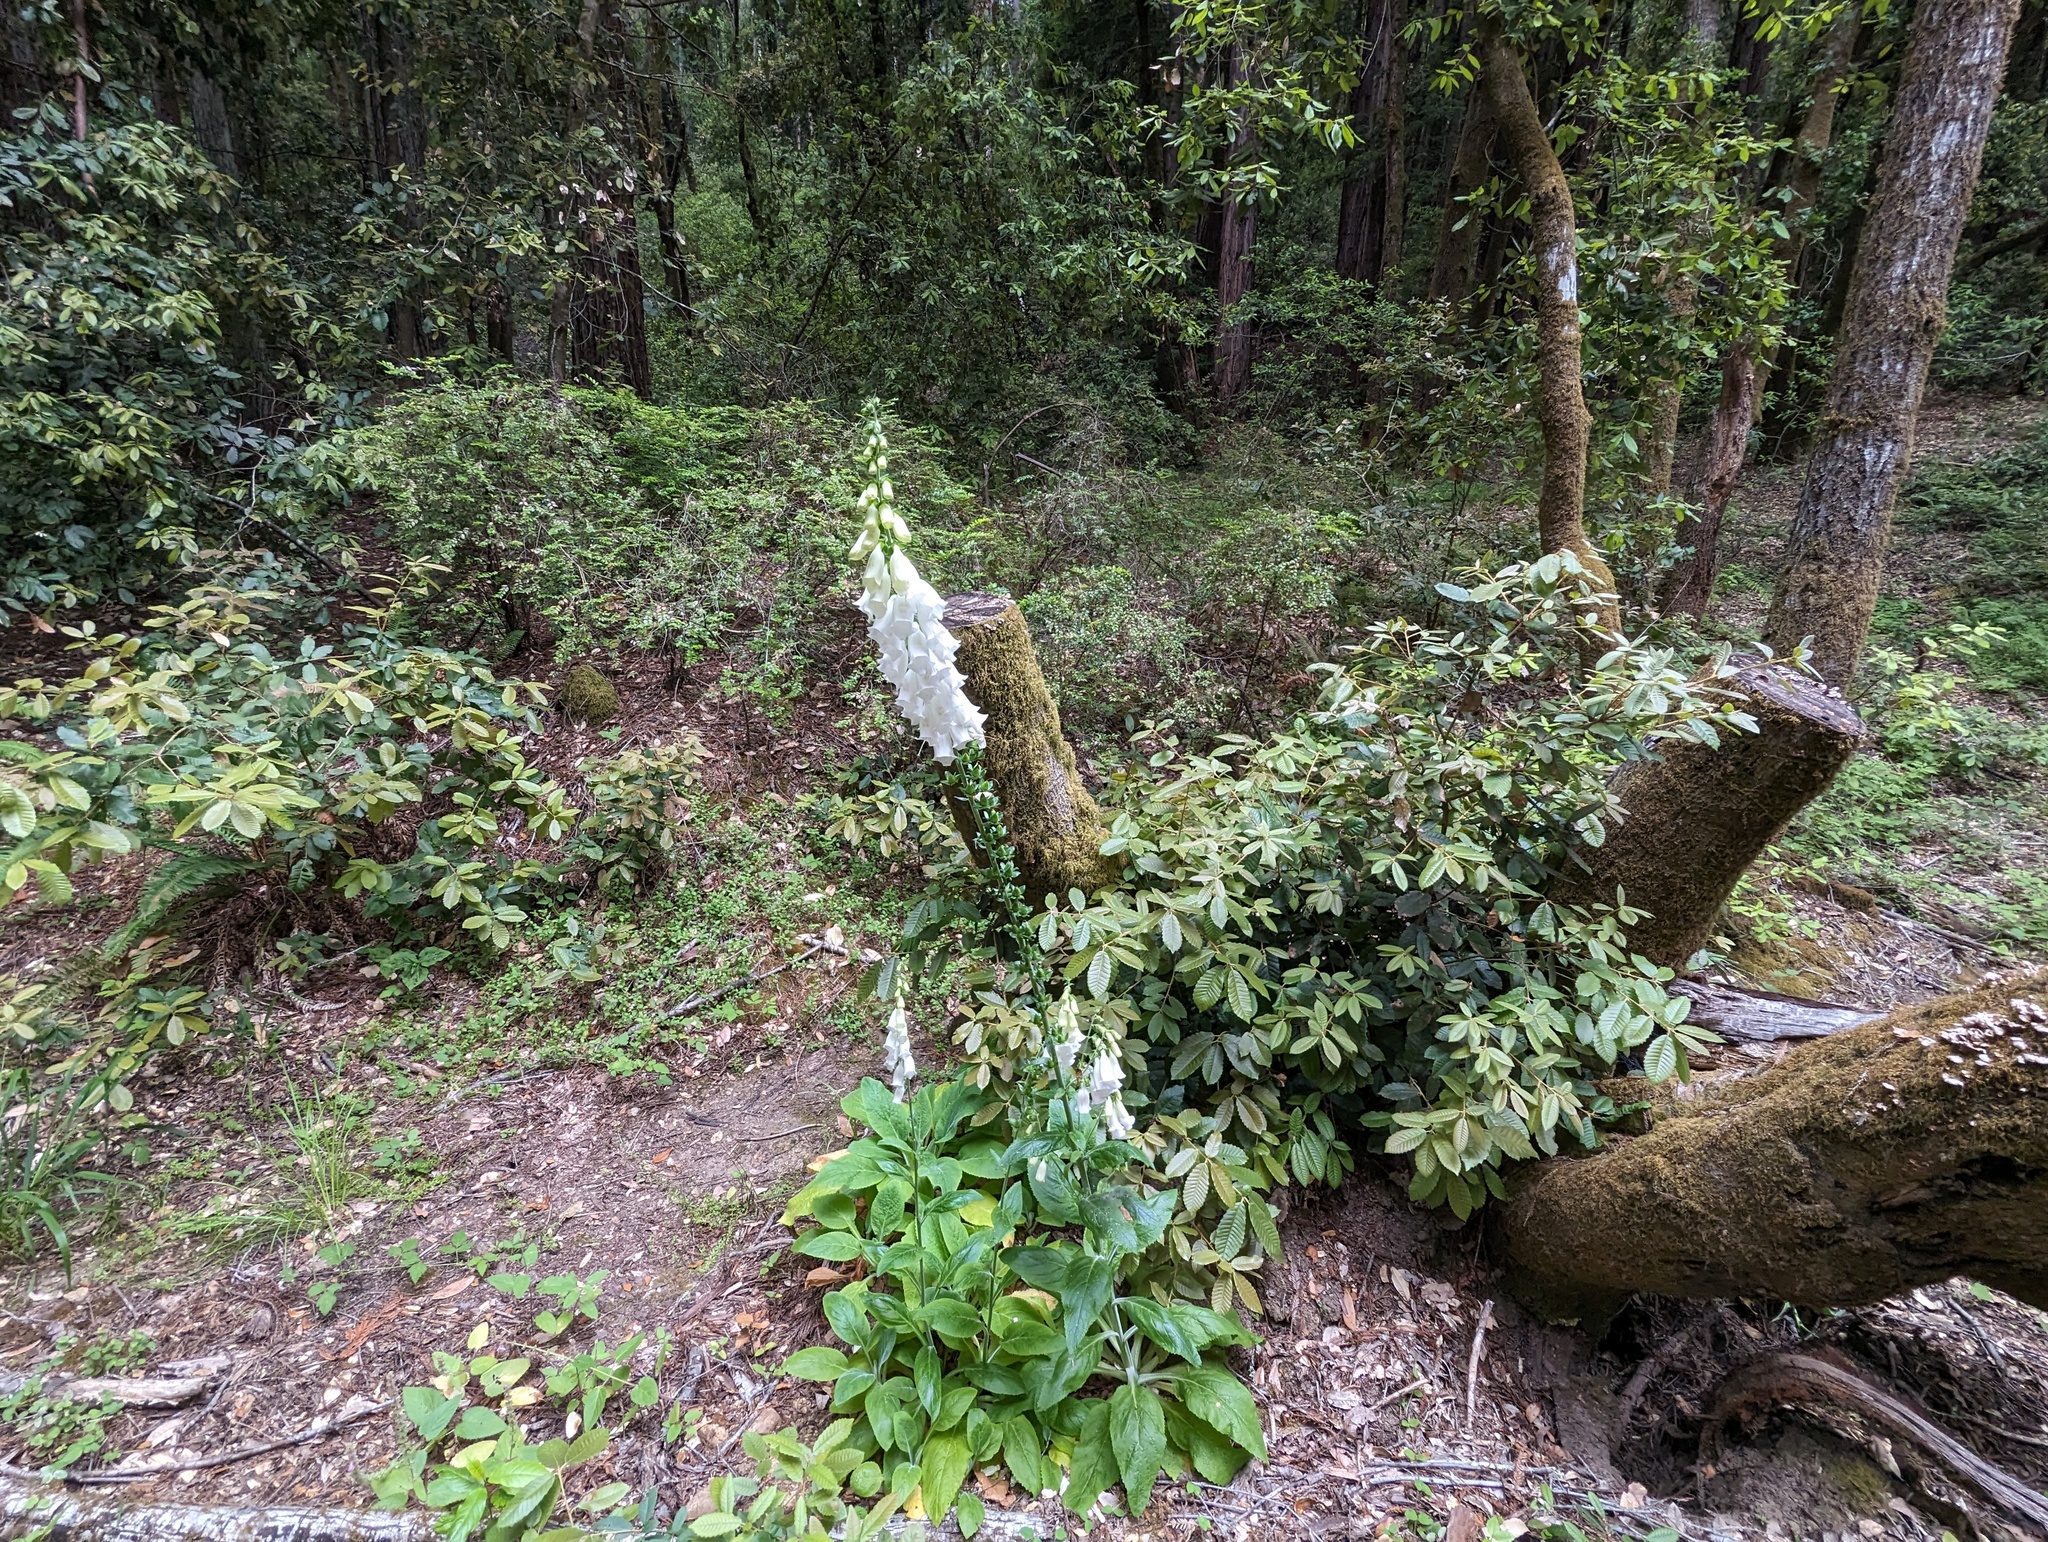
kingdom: Plantae
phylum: Tracheophyta
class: Magnoliopsida
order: Lamiales
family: Plantaginaceae
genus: Digitalis
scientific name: Digitalis purpurea
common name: Foxglove
